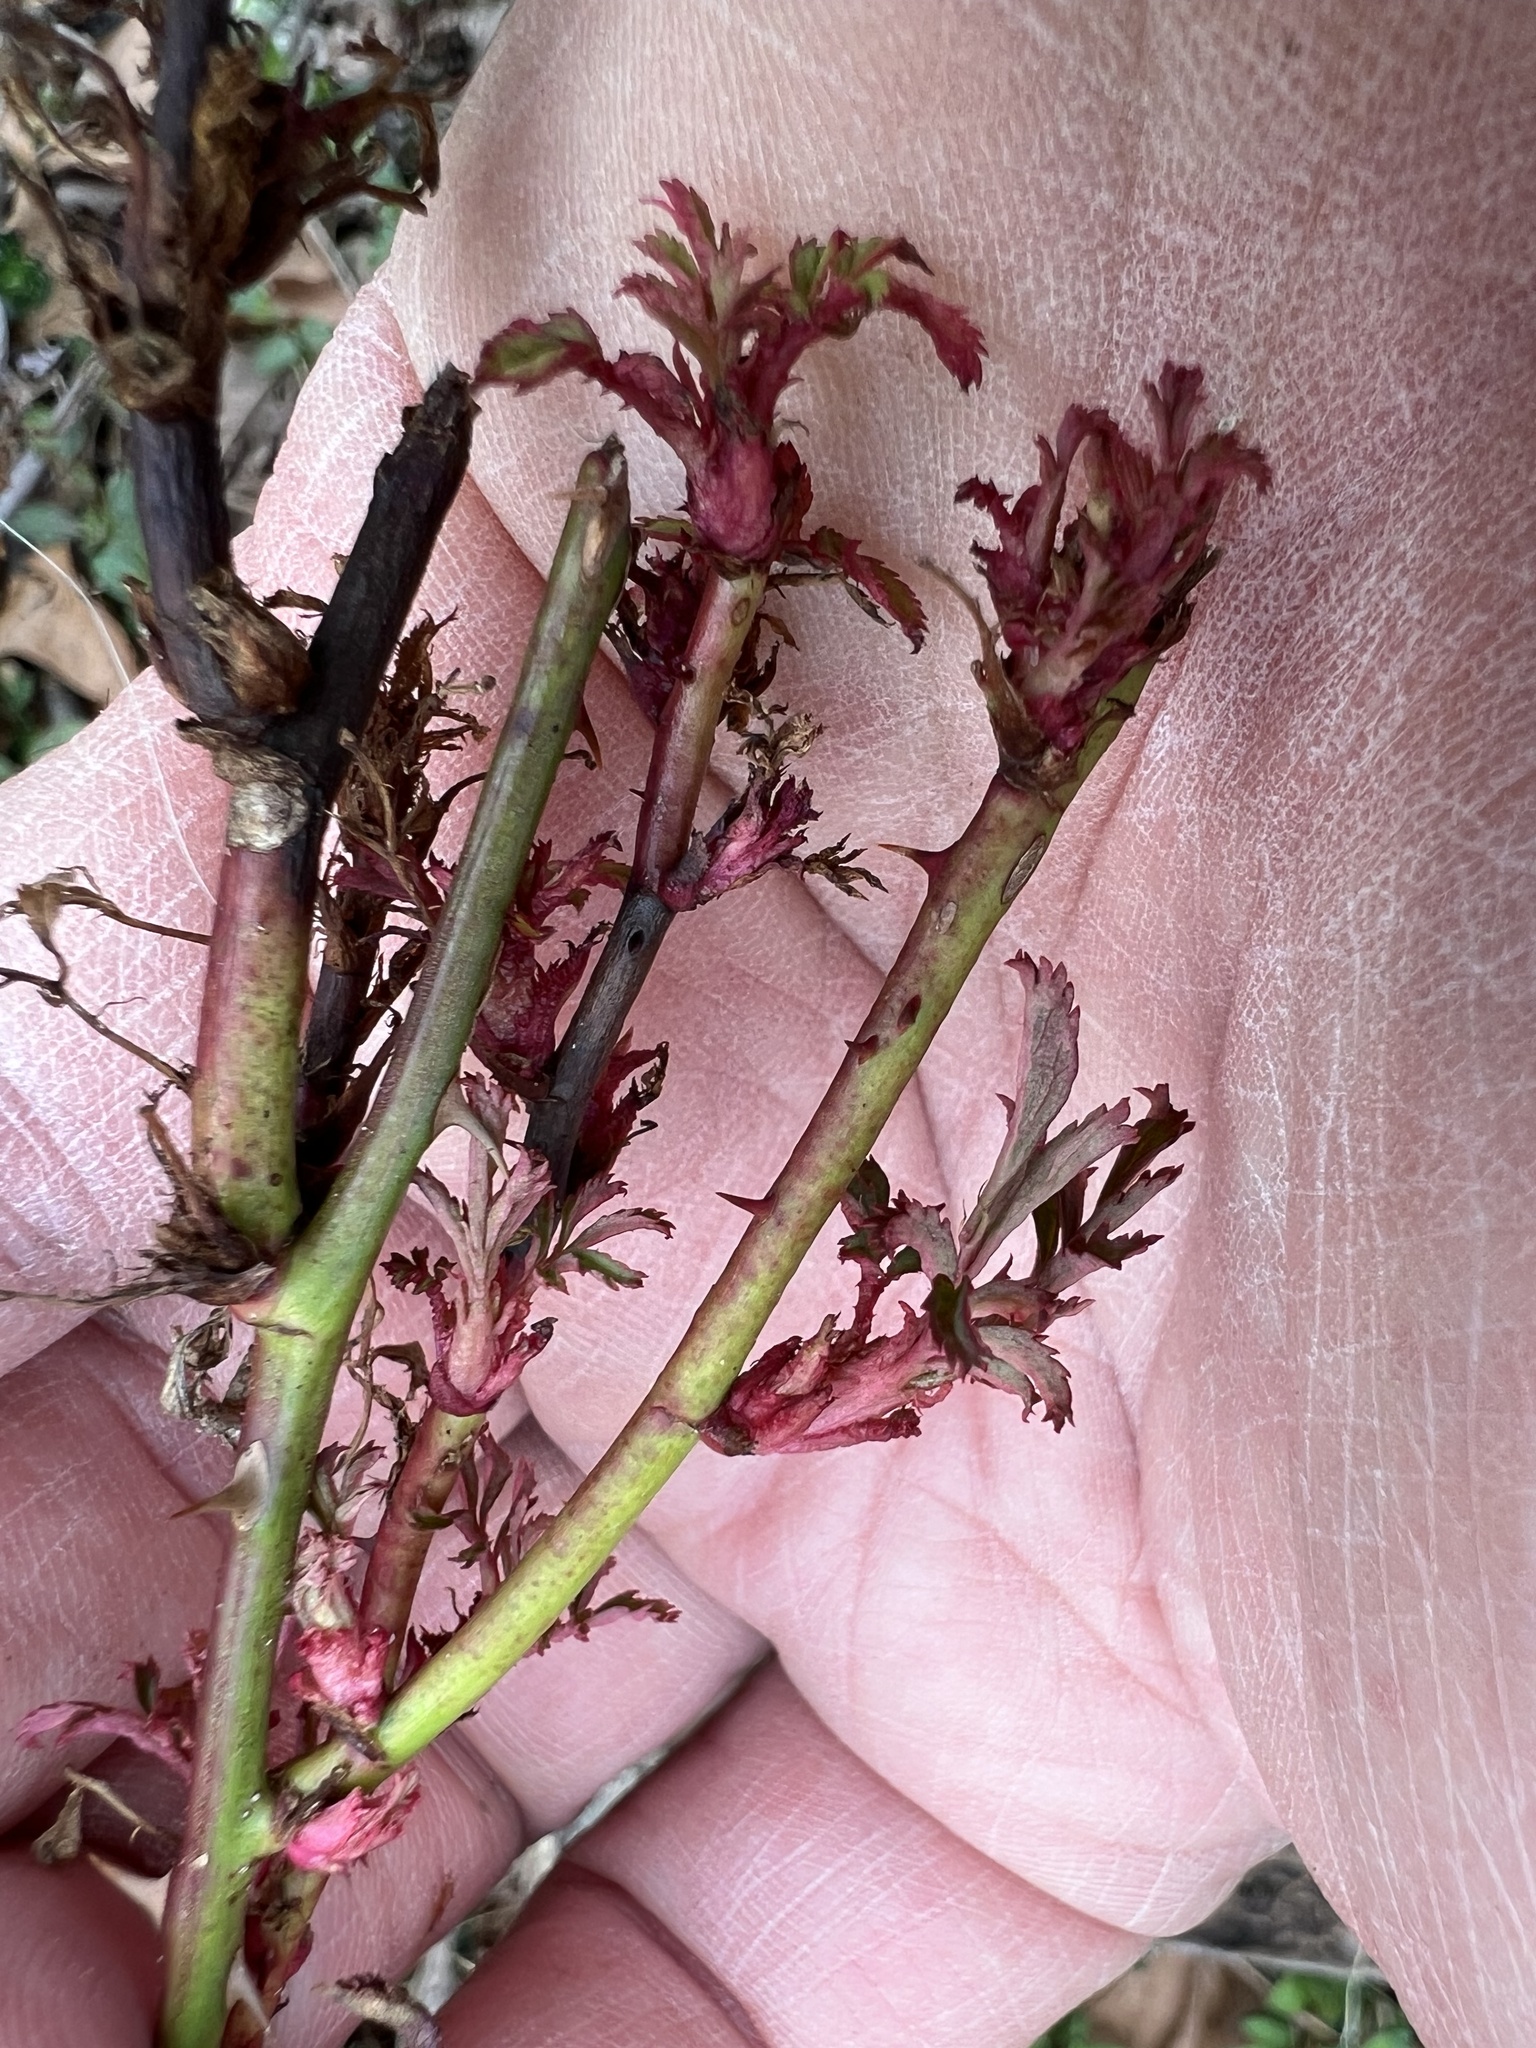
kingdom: Viruses
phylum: Negarnaviricota
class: Ellioviricetes
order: Bunyavirales
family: Fimoviridae
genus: Emaravirus
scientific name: Emaravirus rosae
